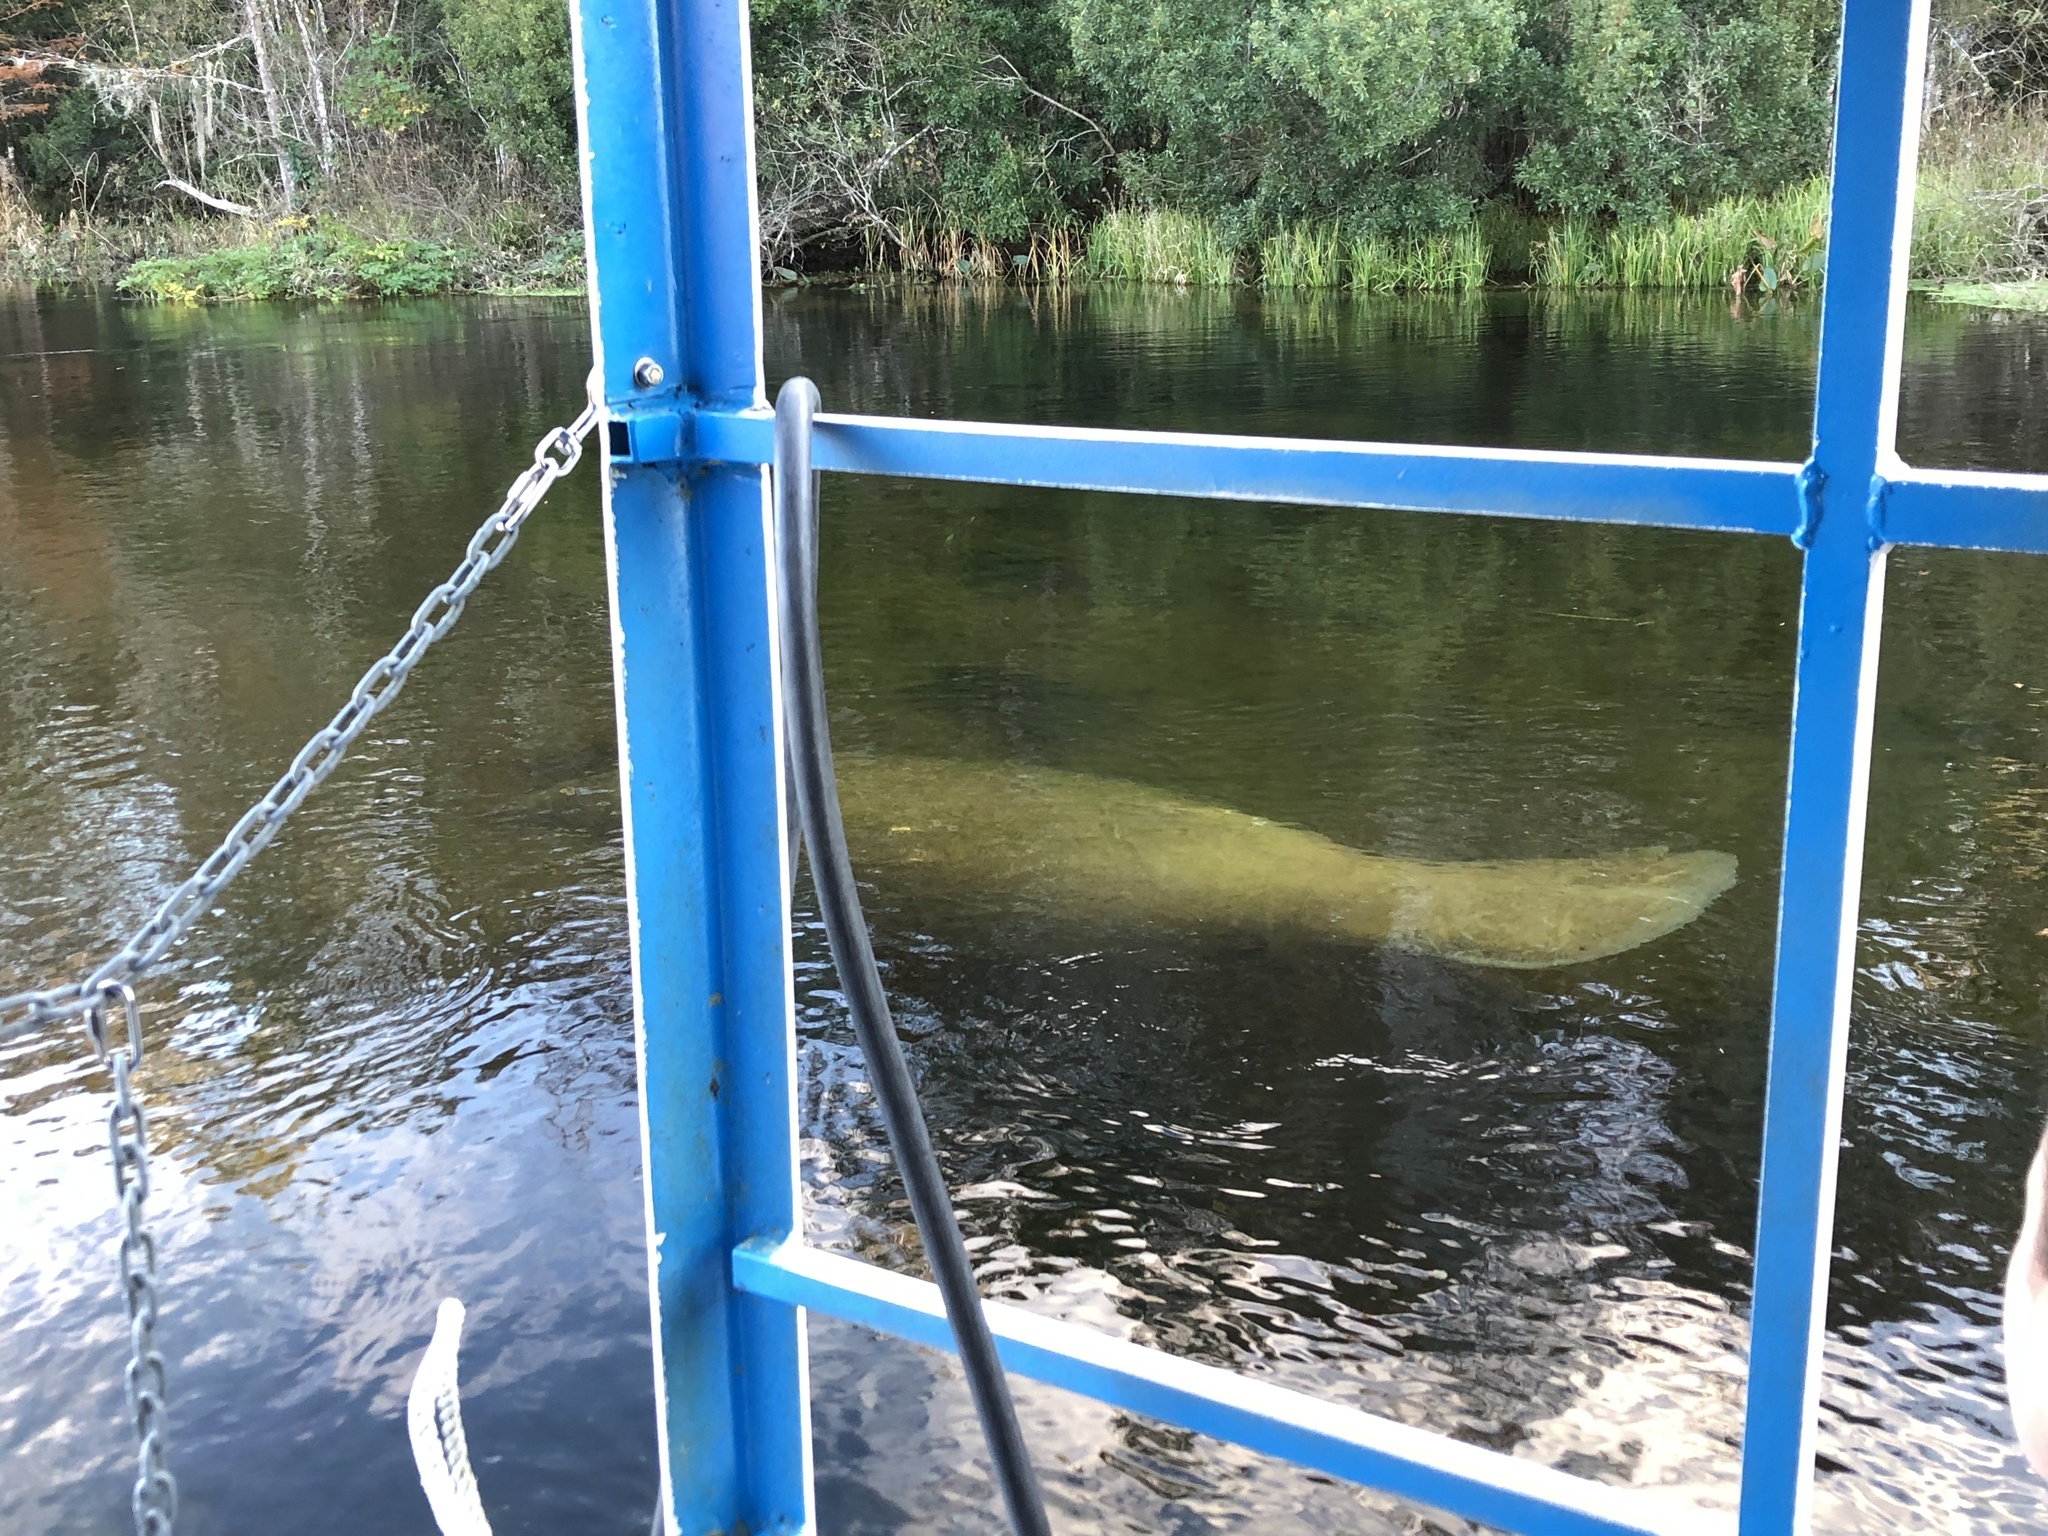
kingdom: Animalia
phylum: Chordata
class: Mammalia
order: Sirenia
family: Trichechidae
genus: Trichechus
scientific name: Trichechus manatus
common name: West indian manatee
